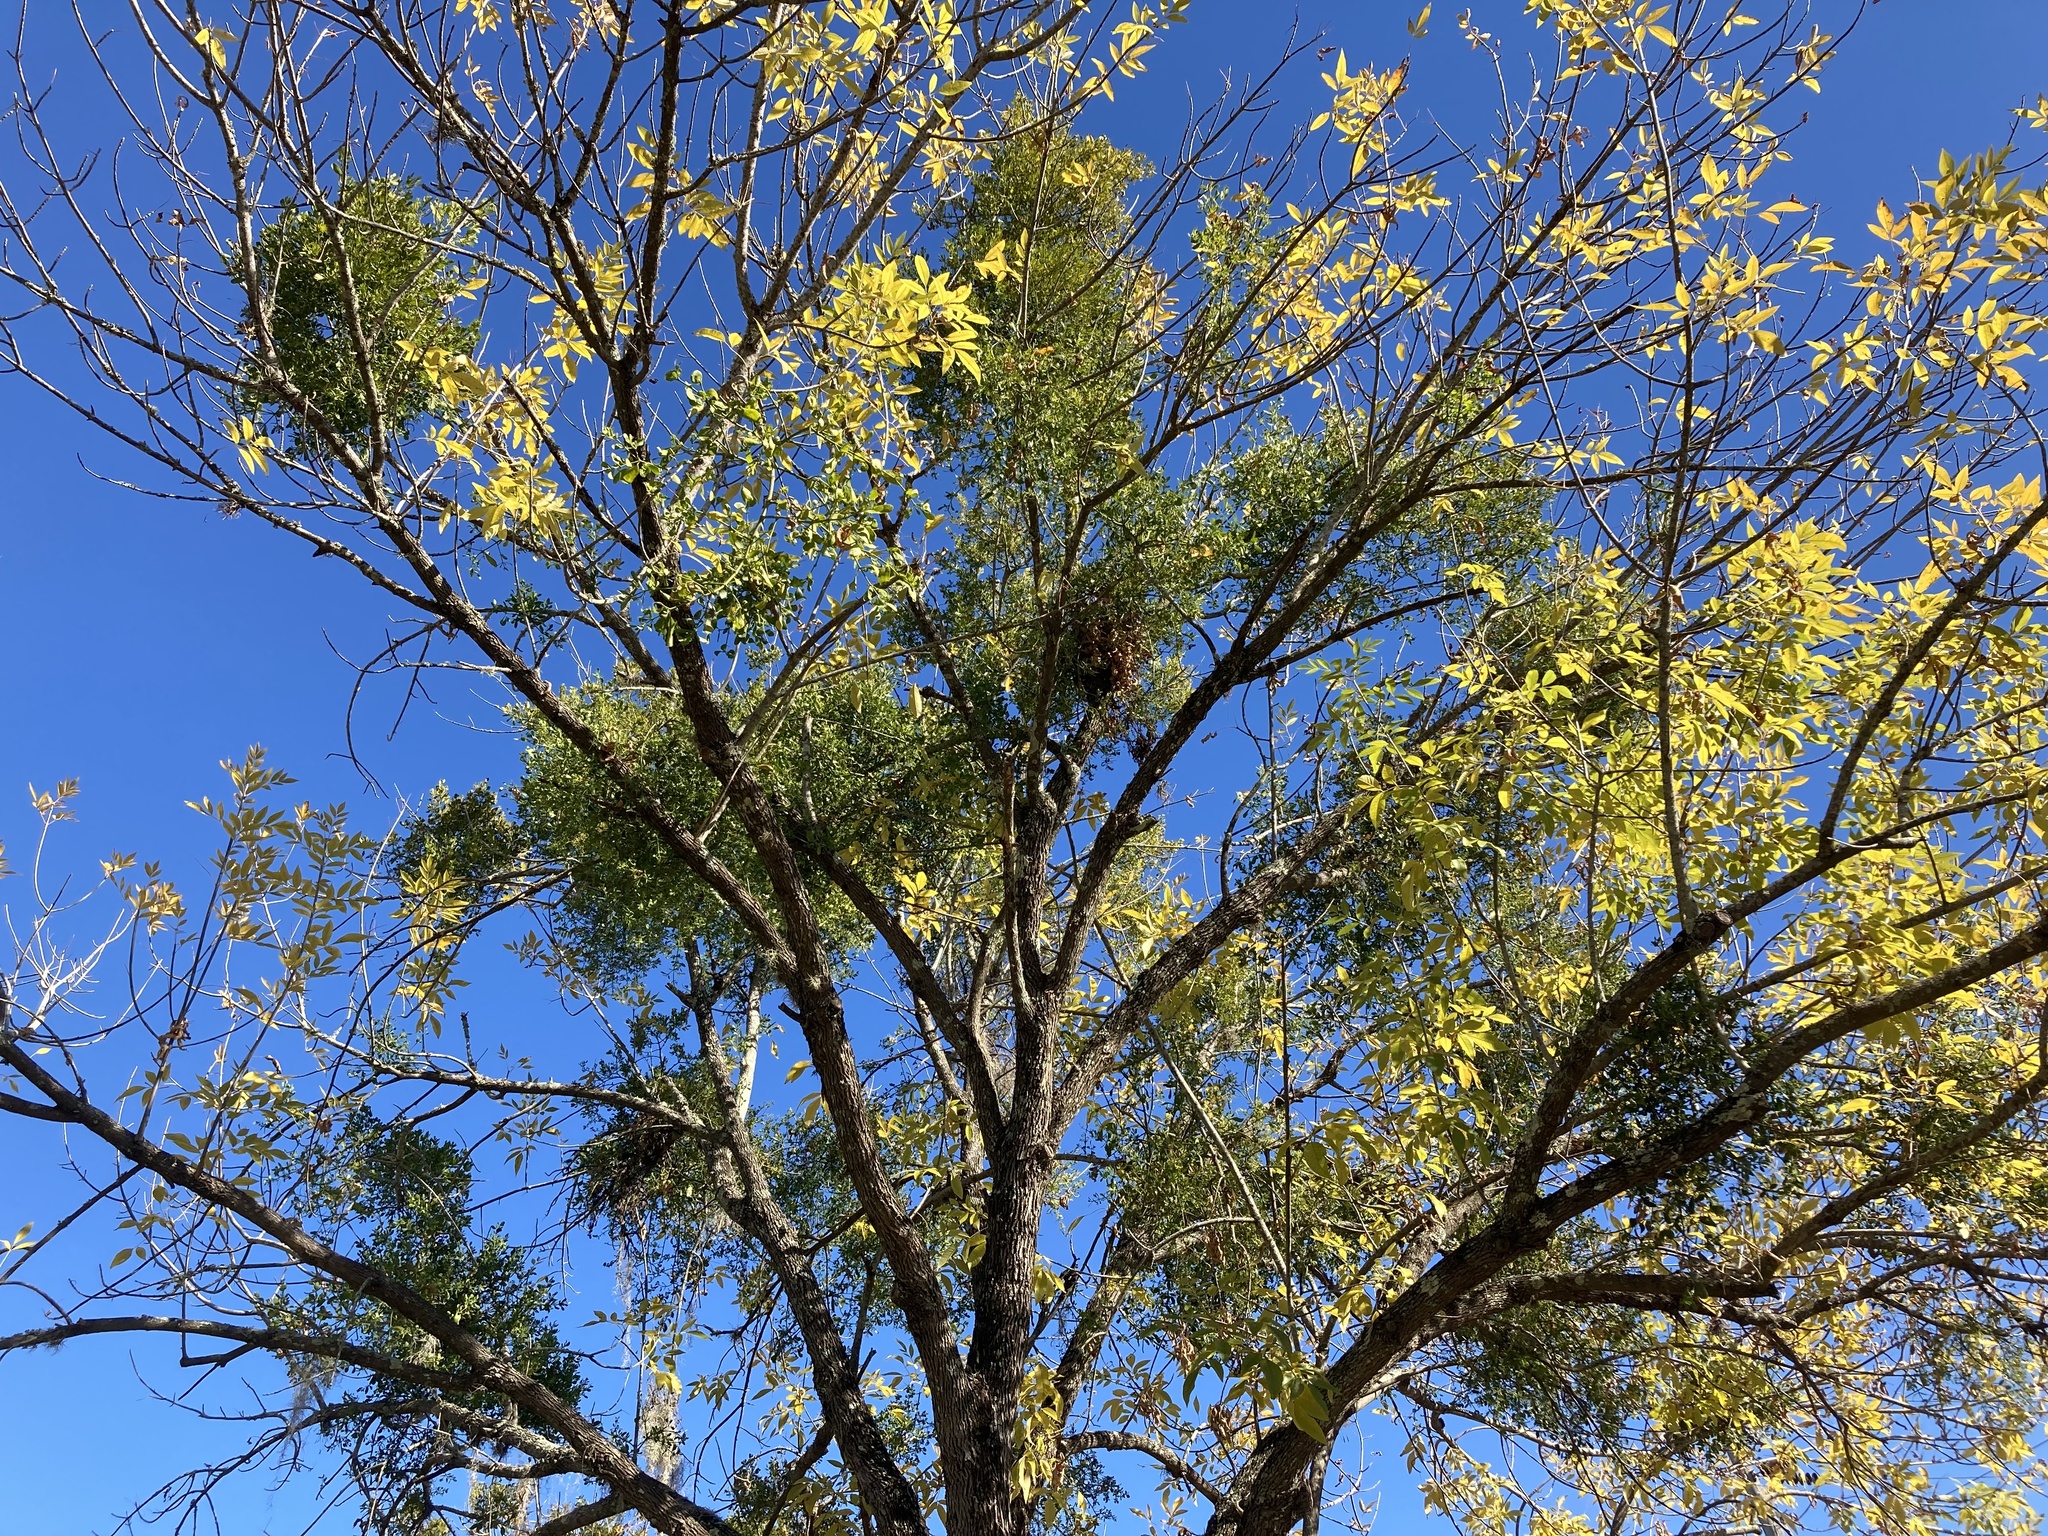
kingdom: Plantae
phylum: Tracheophyta
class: Magnoliopsida
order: Santalales
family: Viscaceae
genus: Phoradendron
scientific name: Phoradendron leucarpum
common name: Pacific mistletoe
